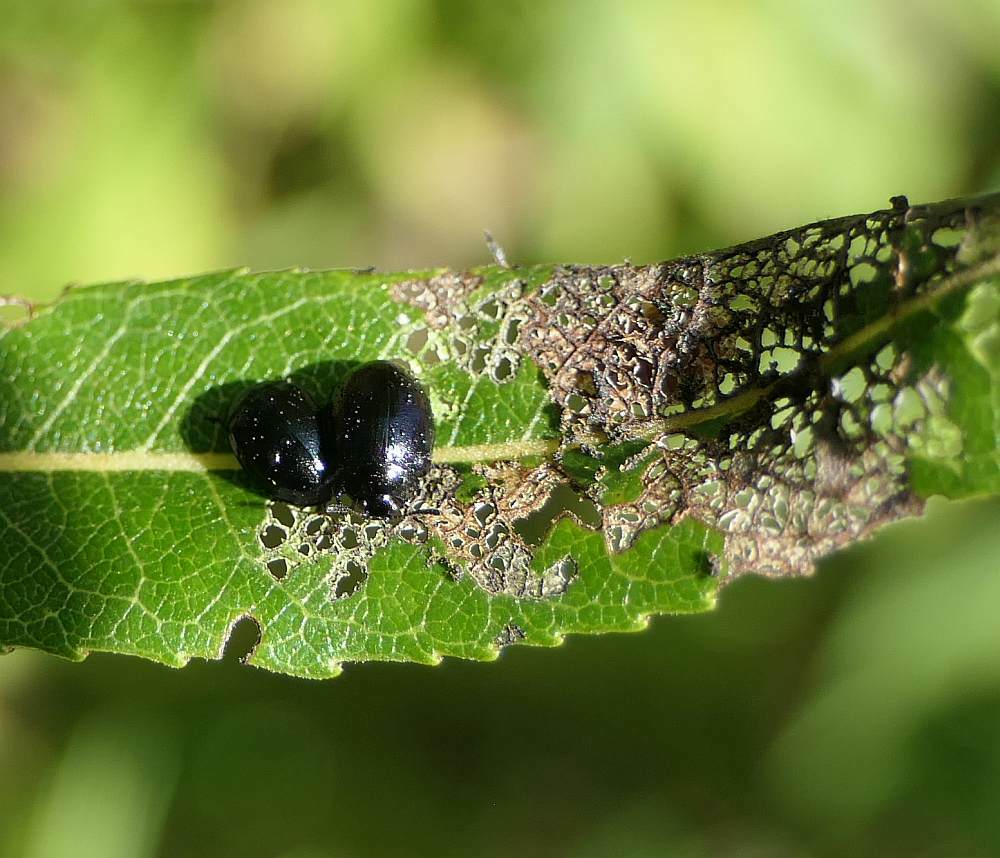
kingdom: Animalia
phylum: Arthropoda
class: Insecta
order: Coleoptera
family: Chrysomelidae
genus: Plagiodera
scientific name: Plagiodera versicolora
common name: Imported willow leaf beetle
